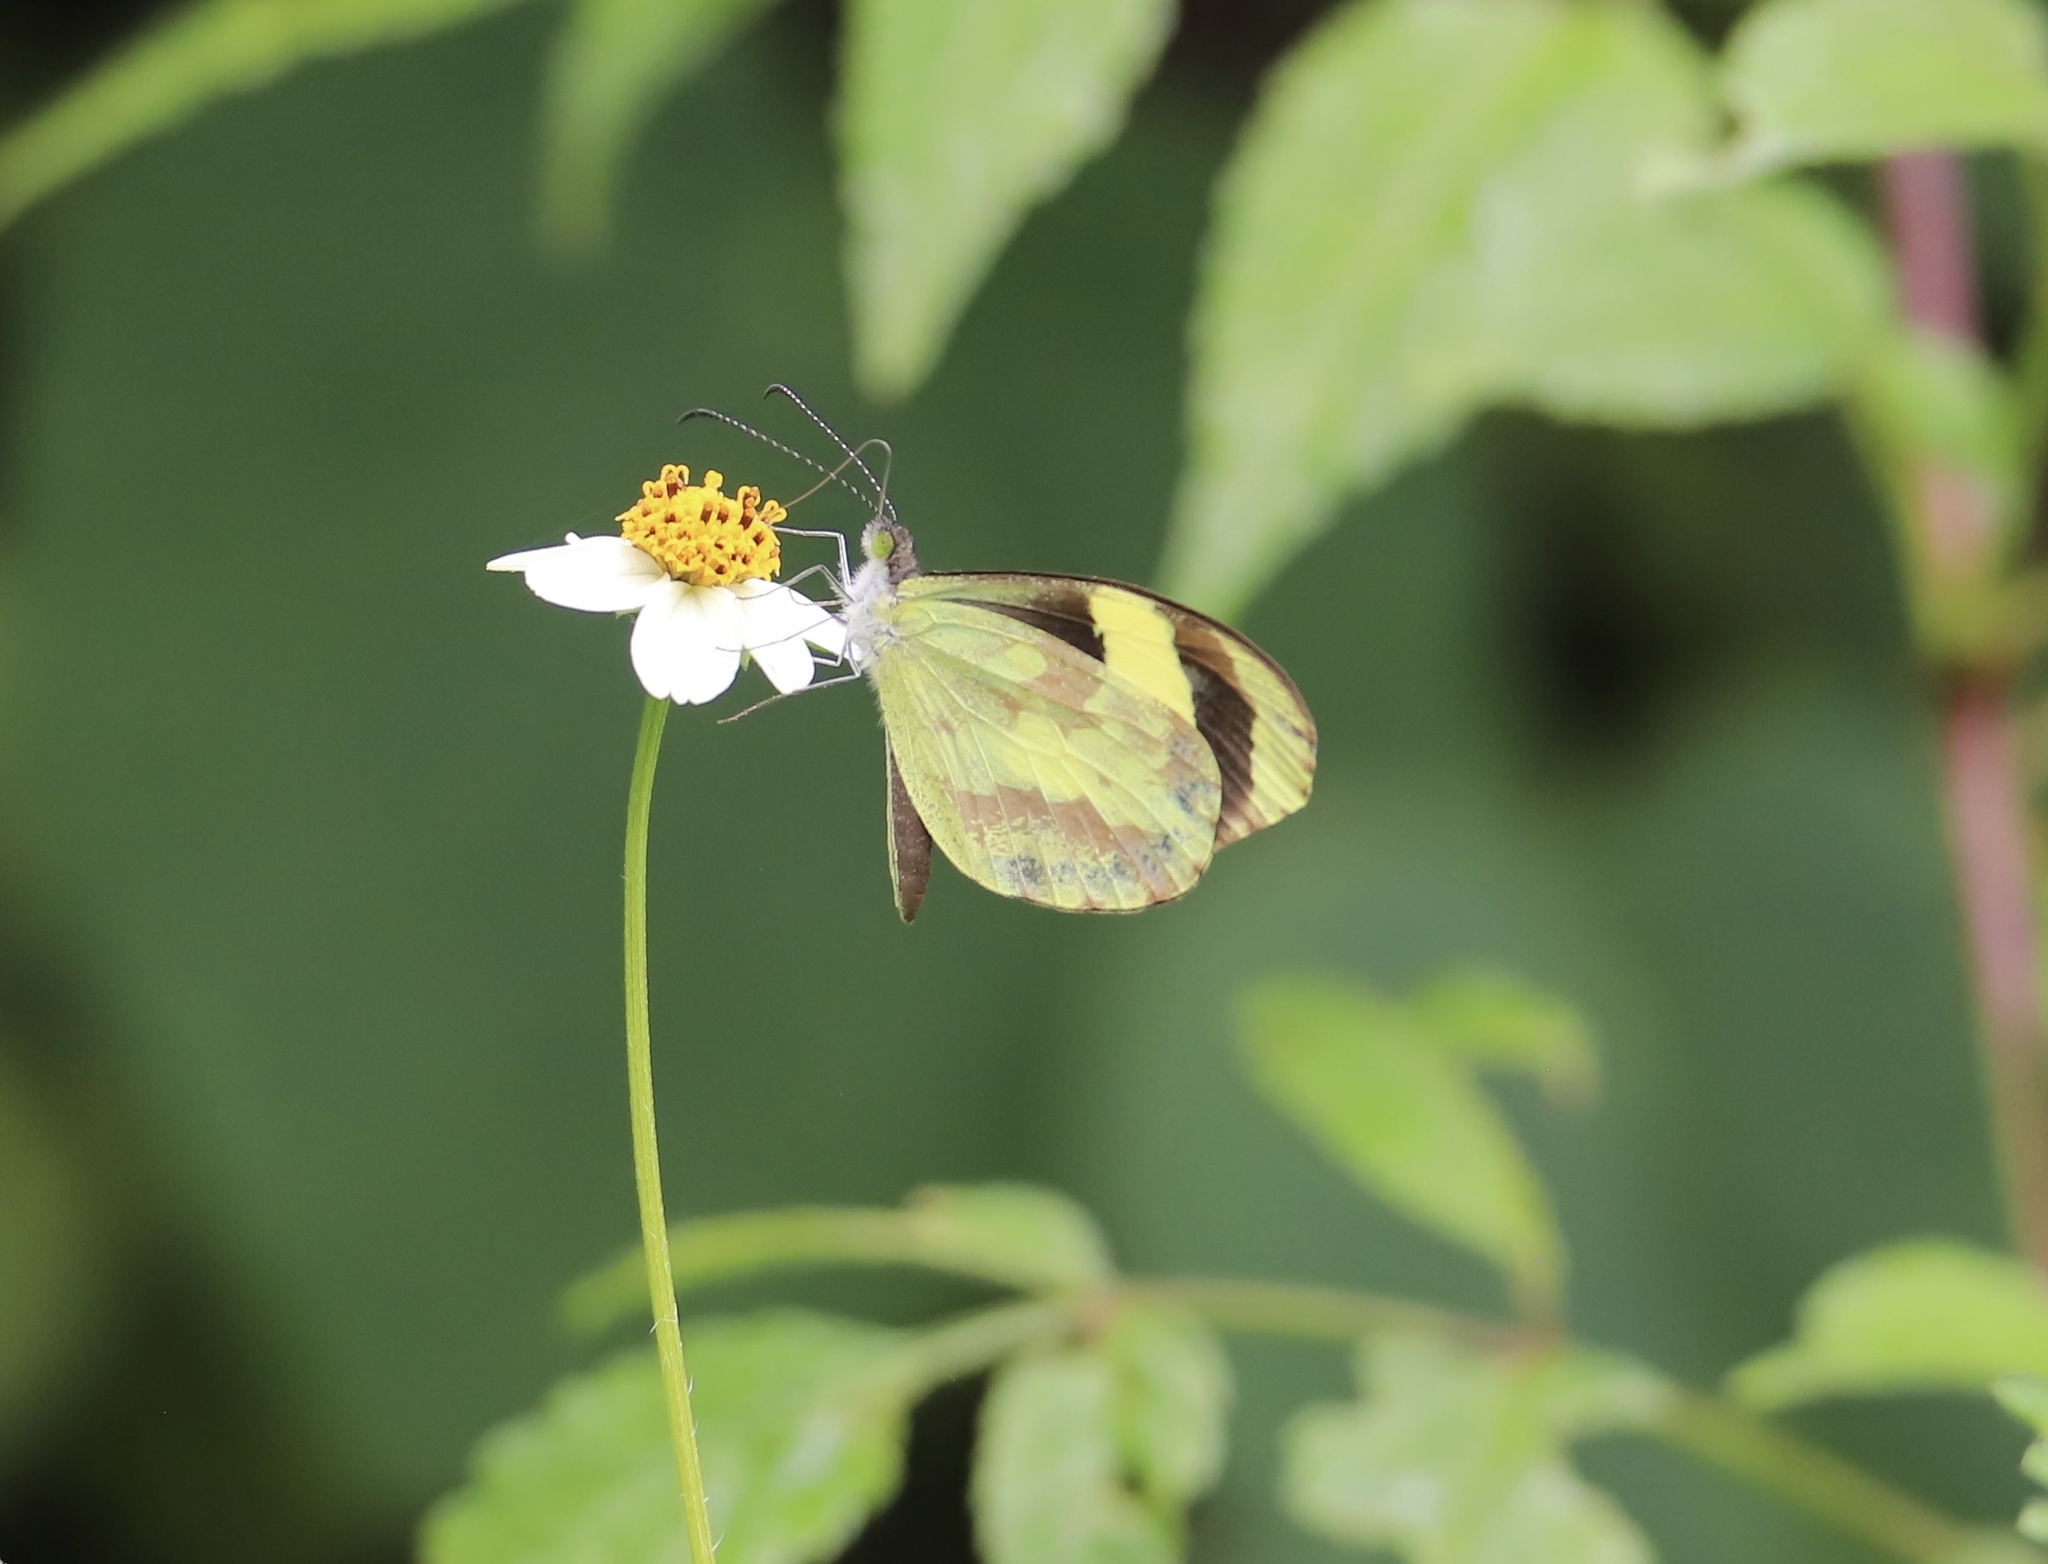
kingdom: Animalia
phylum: Arthropoda
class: Insecta
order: Lepidoptera
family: Pieridae
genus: Dismorphia
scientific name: Dismorphia medora
